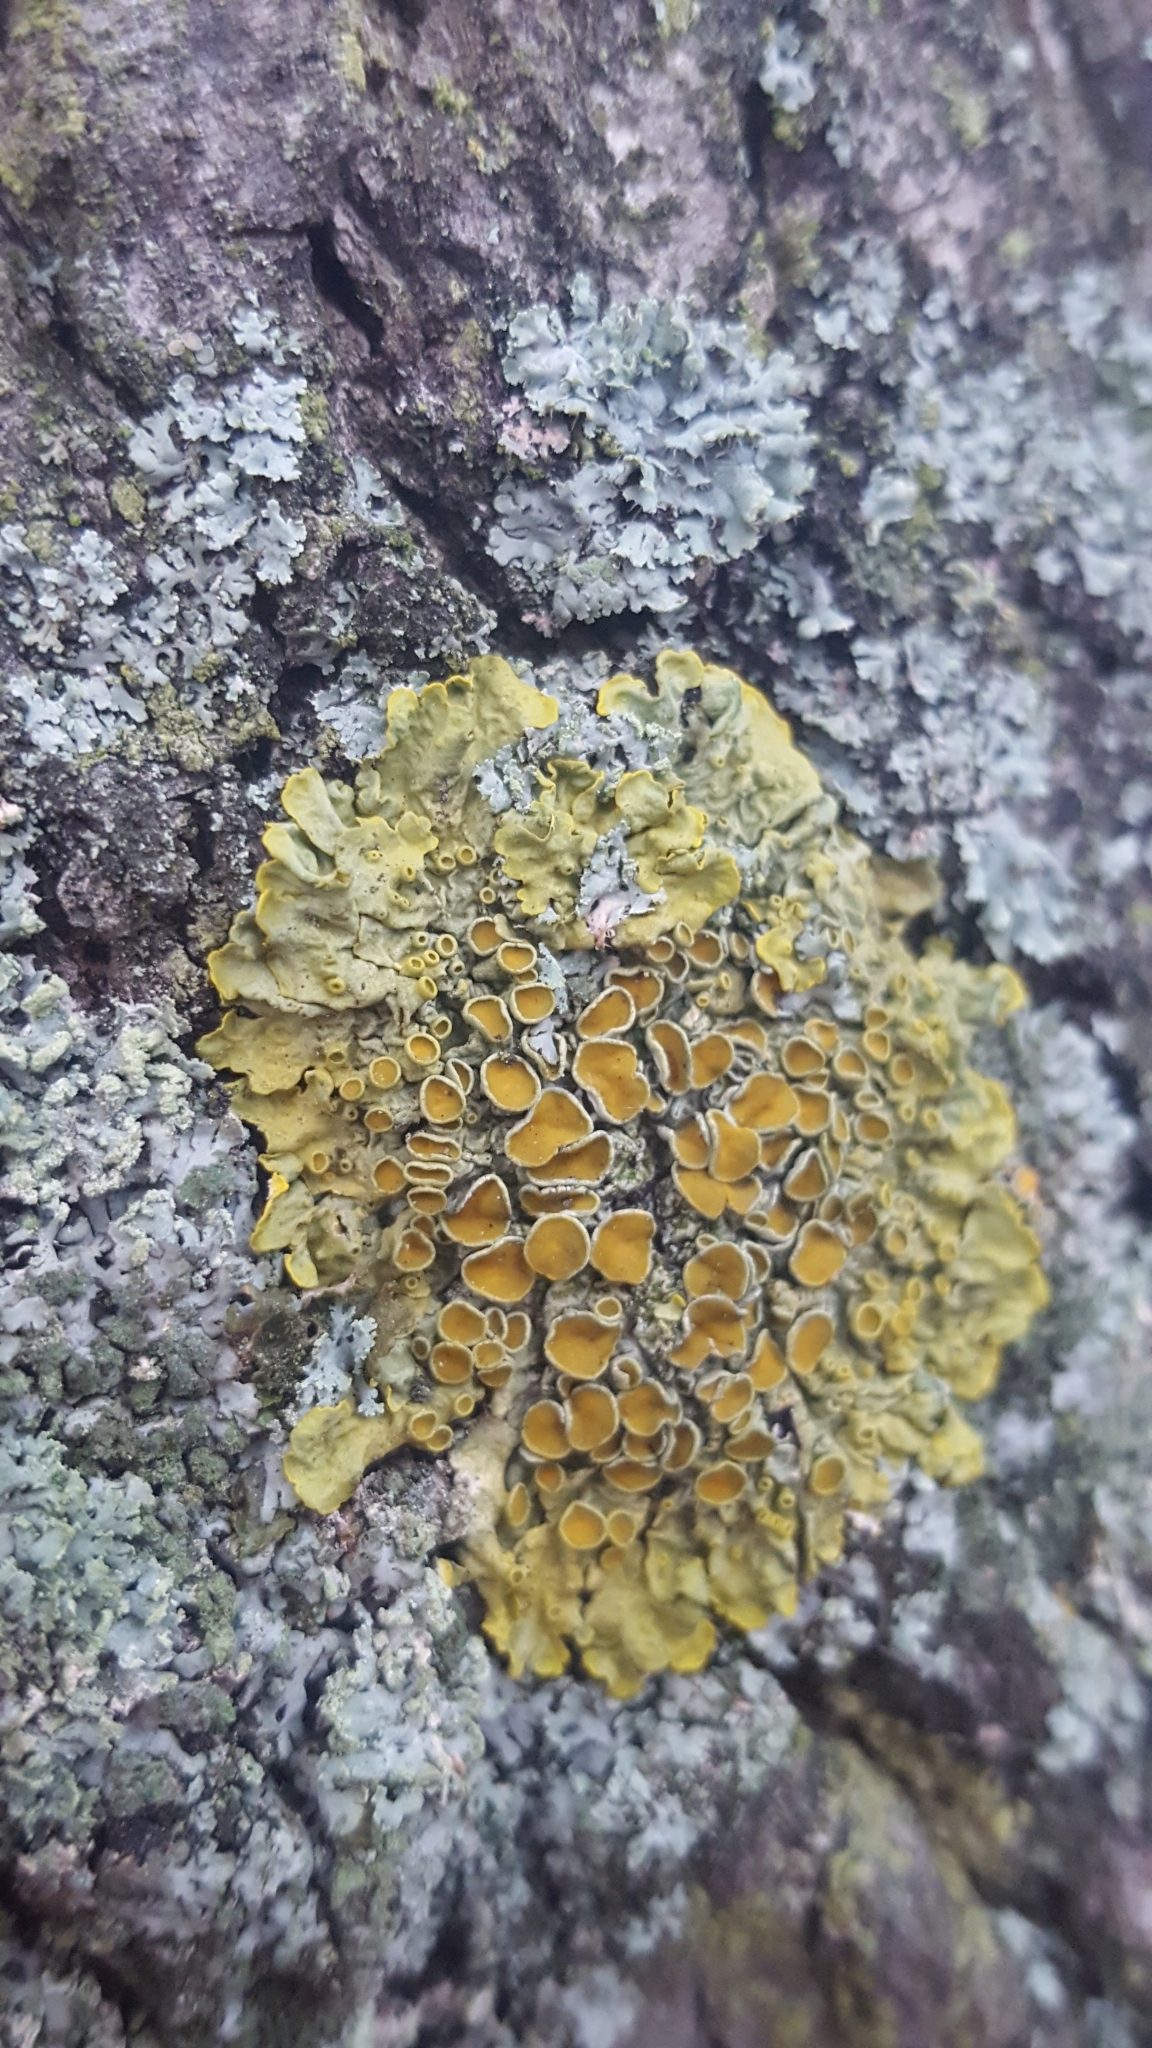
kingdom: Fungi
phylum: Ascomycota
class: Lecanoromycetes
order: Teloschistales
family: Teloschistaceae
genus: Xanthoria
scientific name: Xanthoria parietina
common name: Common orange lichen
